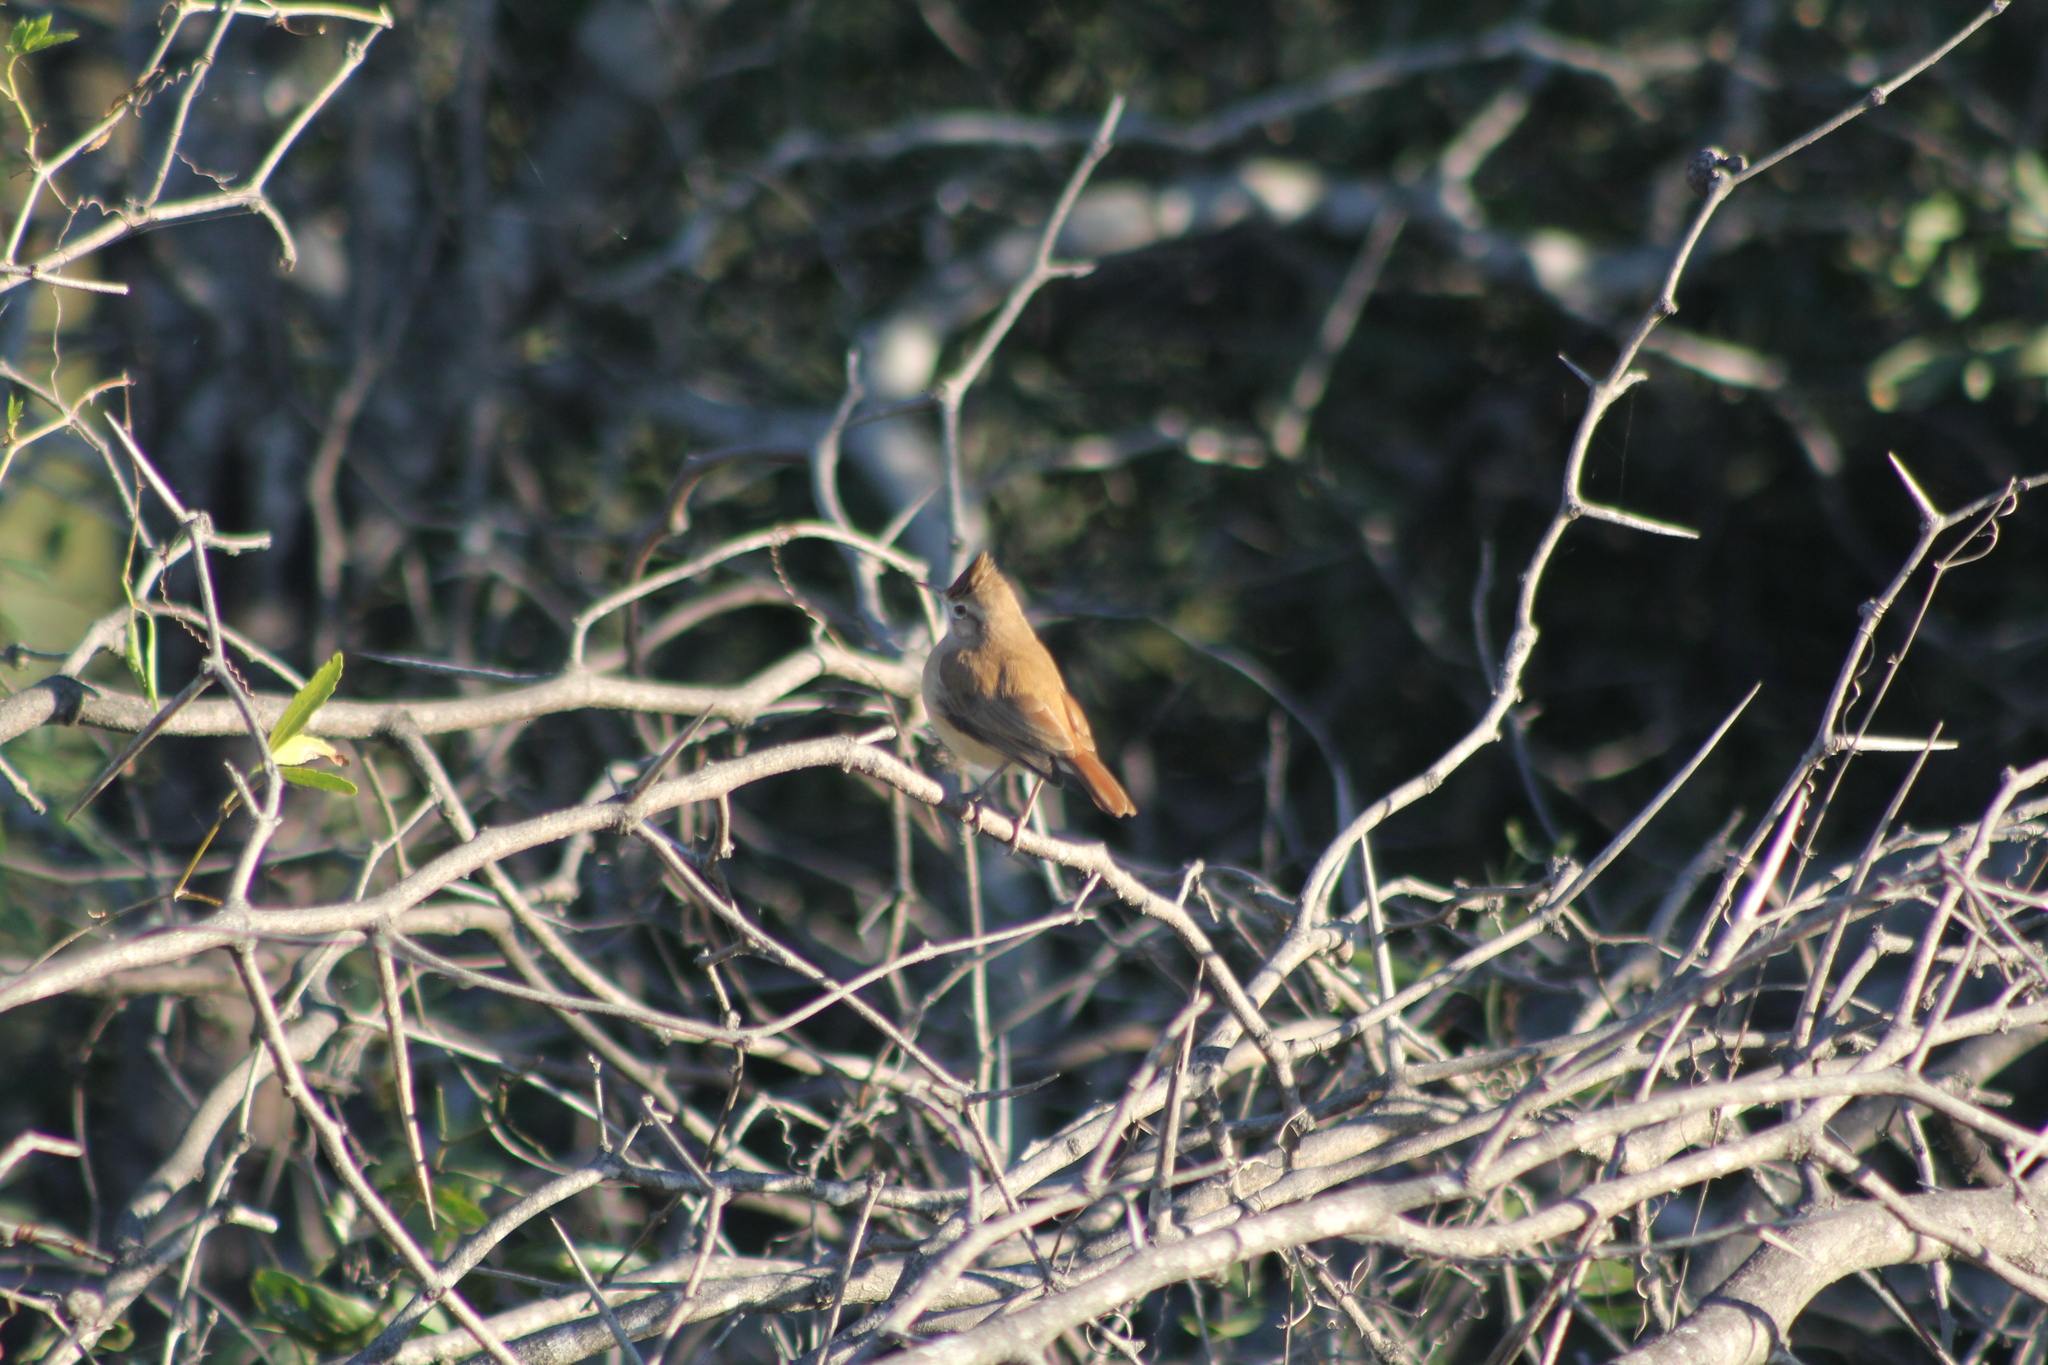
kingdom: Animalia
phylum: Chordata
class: Aves
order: Passeriformes
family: Furnariidae
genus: Furnarius
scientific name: Furnarius cristatus
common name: Crested hornero
